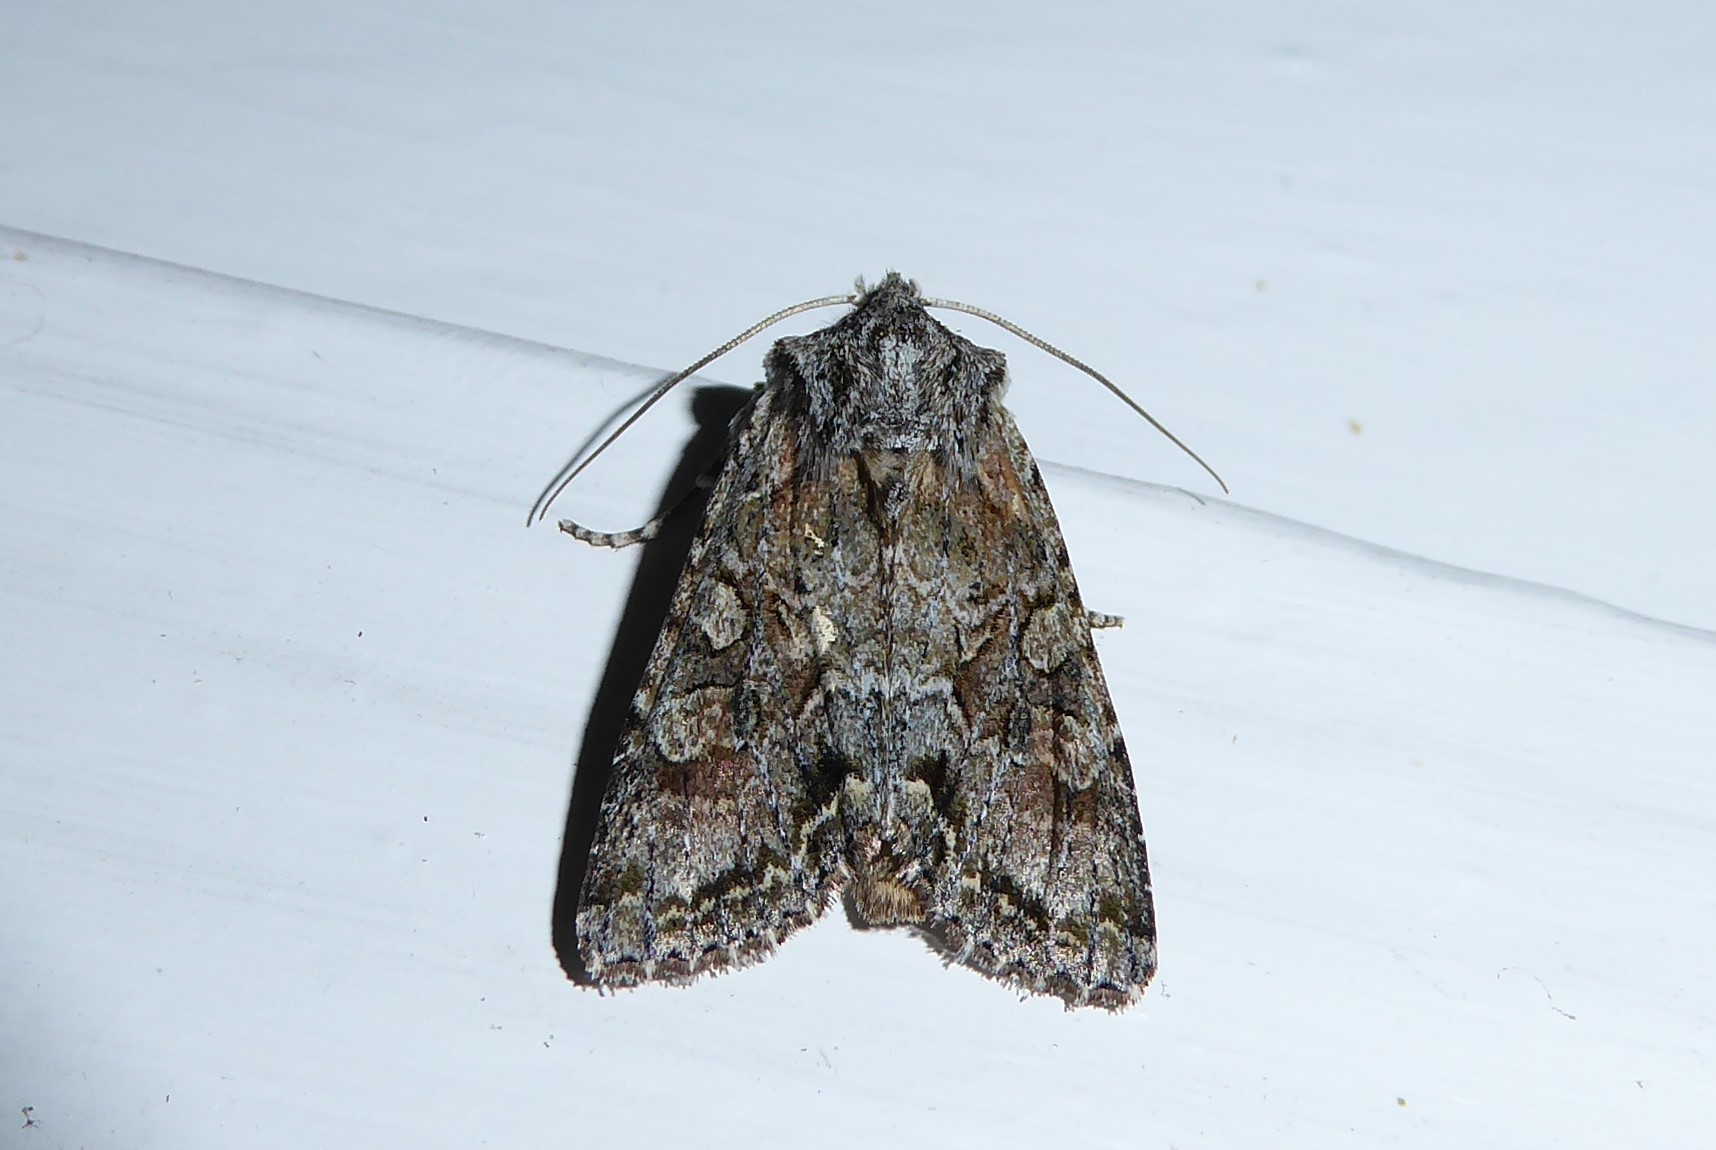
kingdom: Animalia
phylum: Arthropoda
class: Insecta
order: Lepidoptera
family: Noctuidae
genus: Ichneutica
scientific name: Ichneutica mutans
